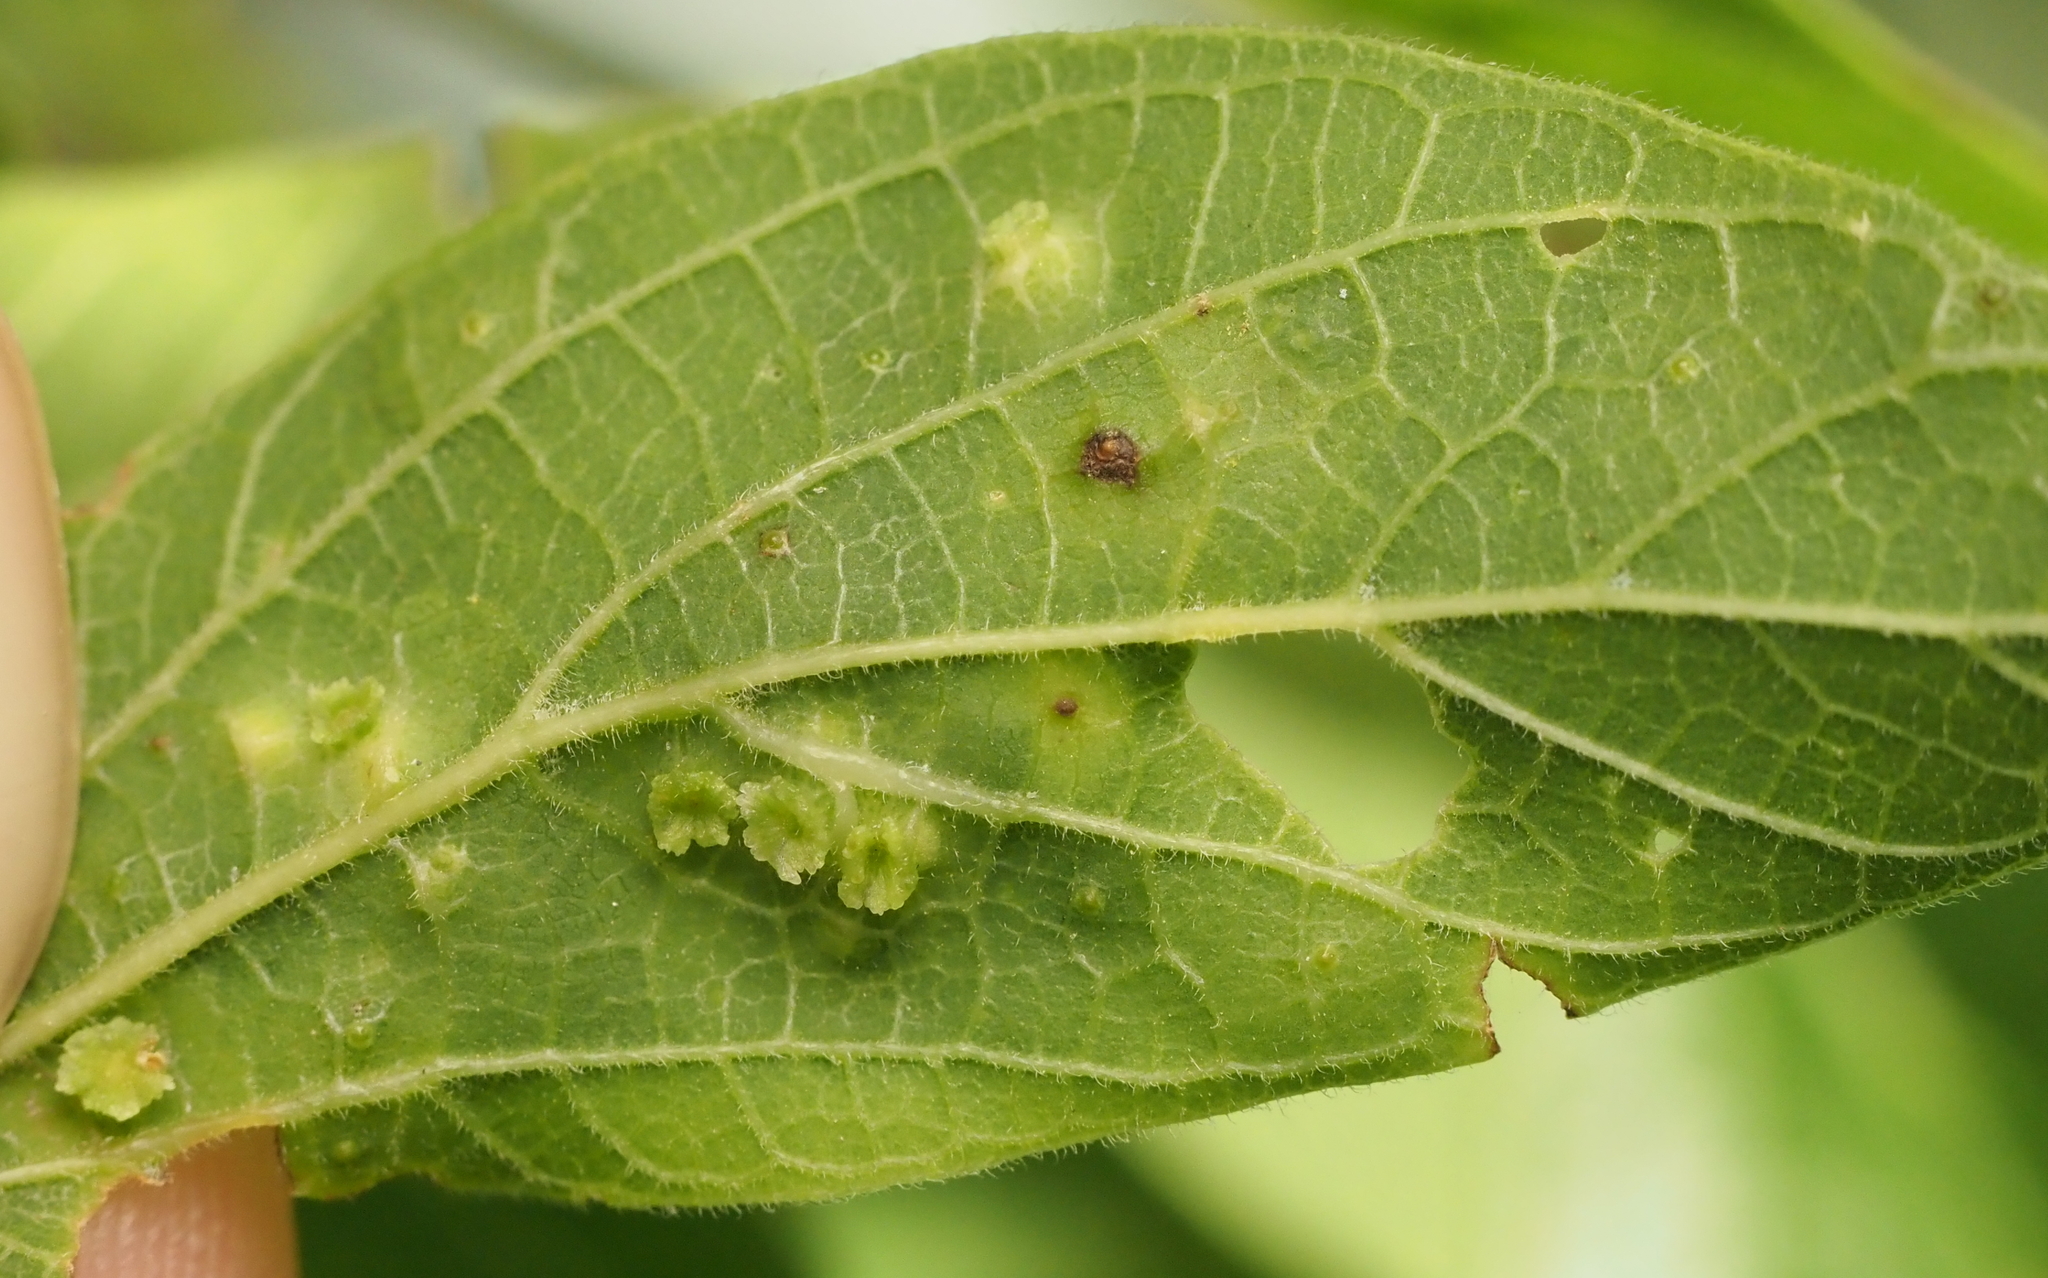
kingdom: Animalia
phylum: Arthropoda
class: Insecta
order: Hemiptera
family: Aphalaridae
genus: Pachypsylla
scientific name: Pachypsylla celtidisasterisca
